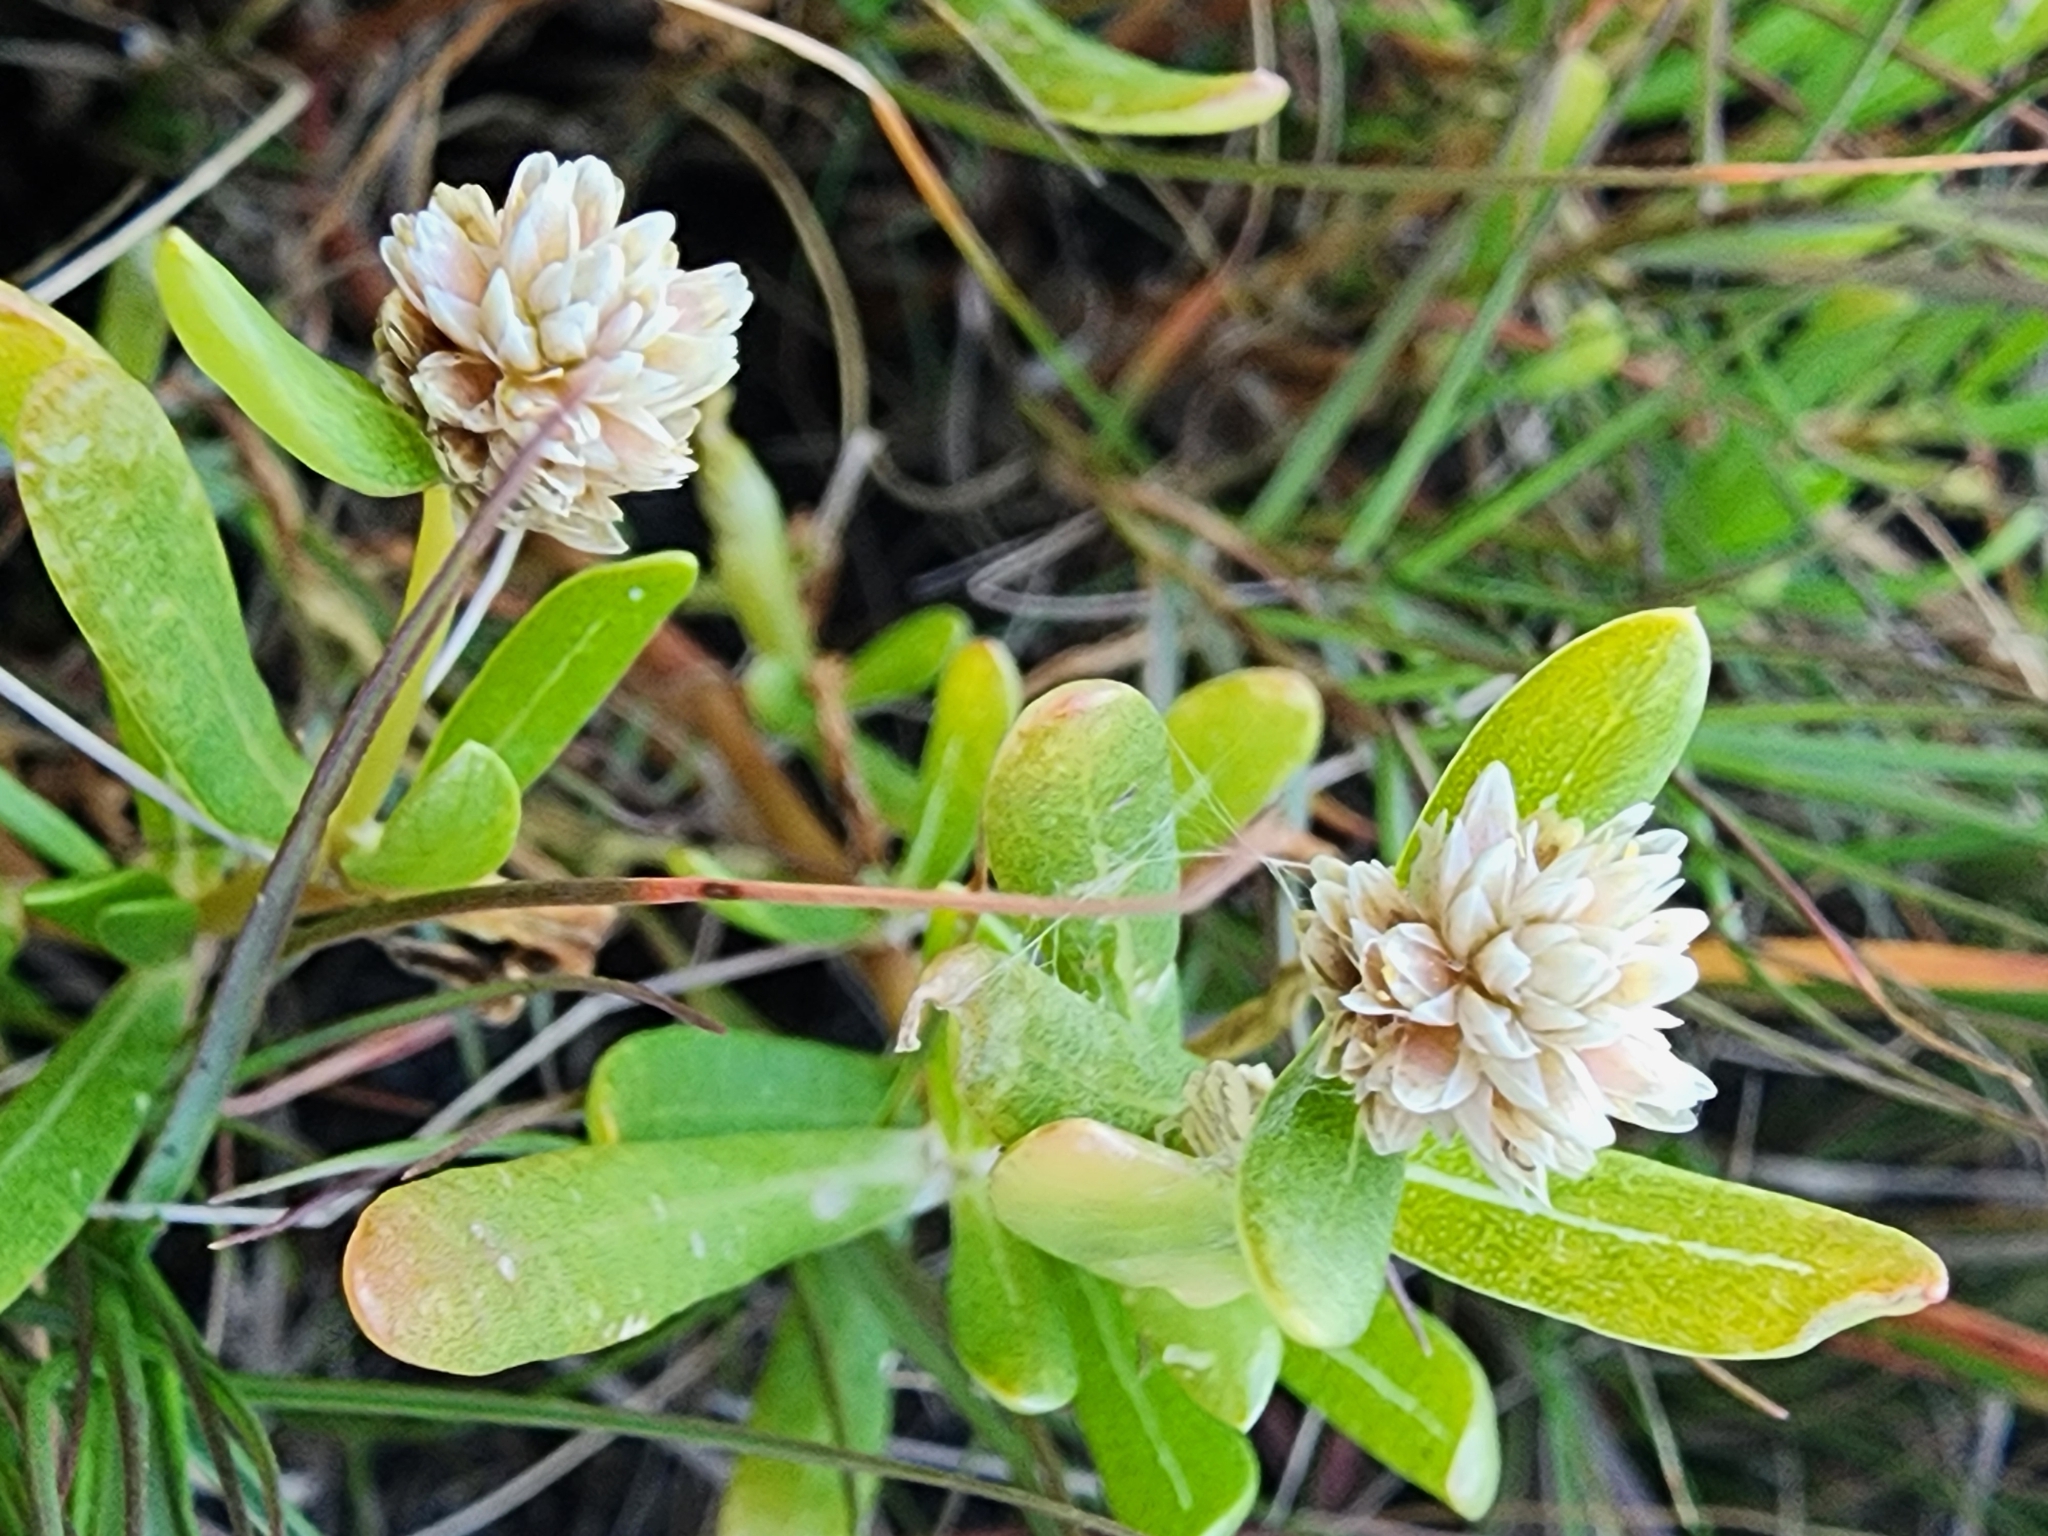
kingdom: Plantae
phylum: Tracheophyta
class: Magnoliopsida
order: Caryophyllales
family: Amaranthaceae
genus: Gomphrena
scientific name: Gomphrena vermicularis
